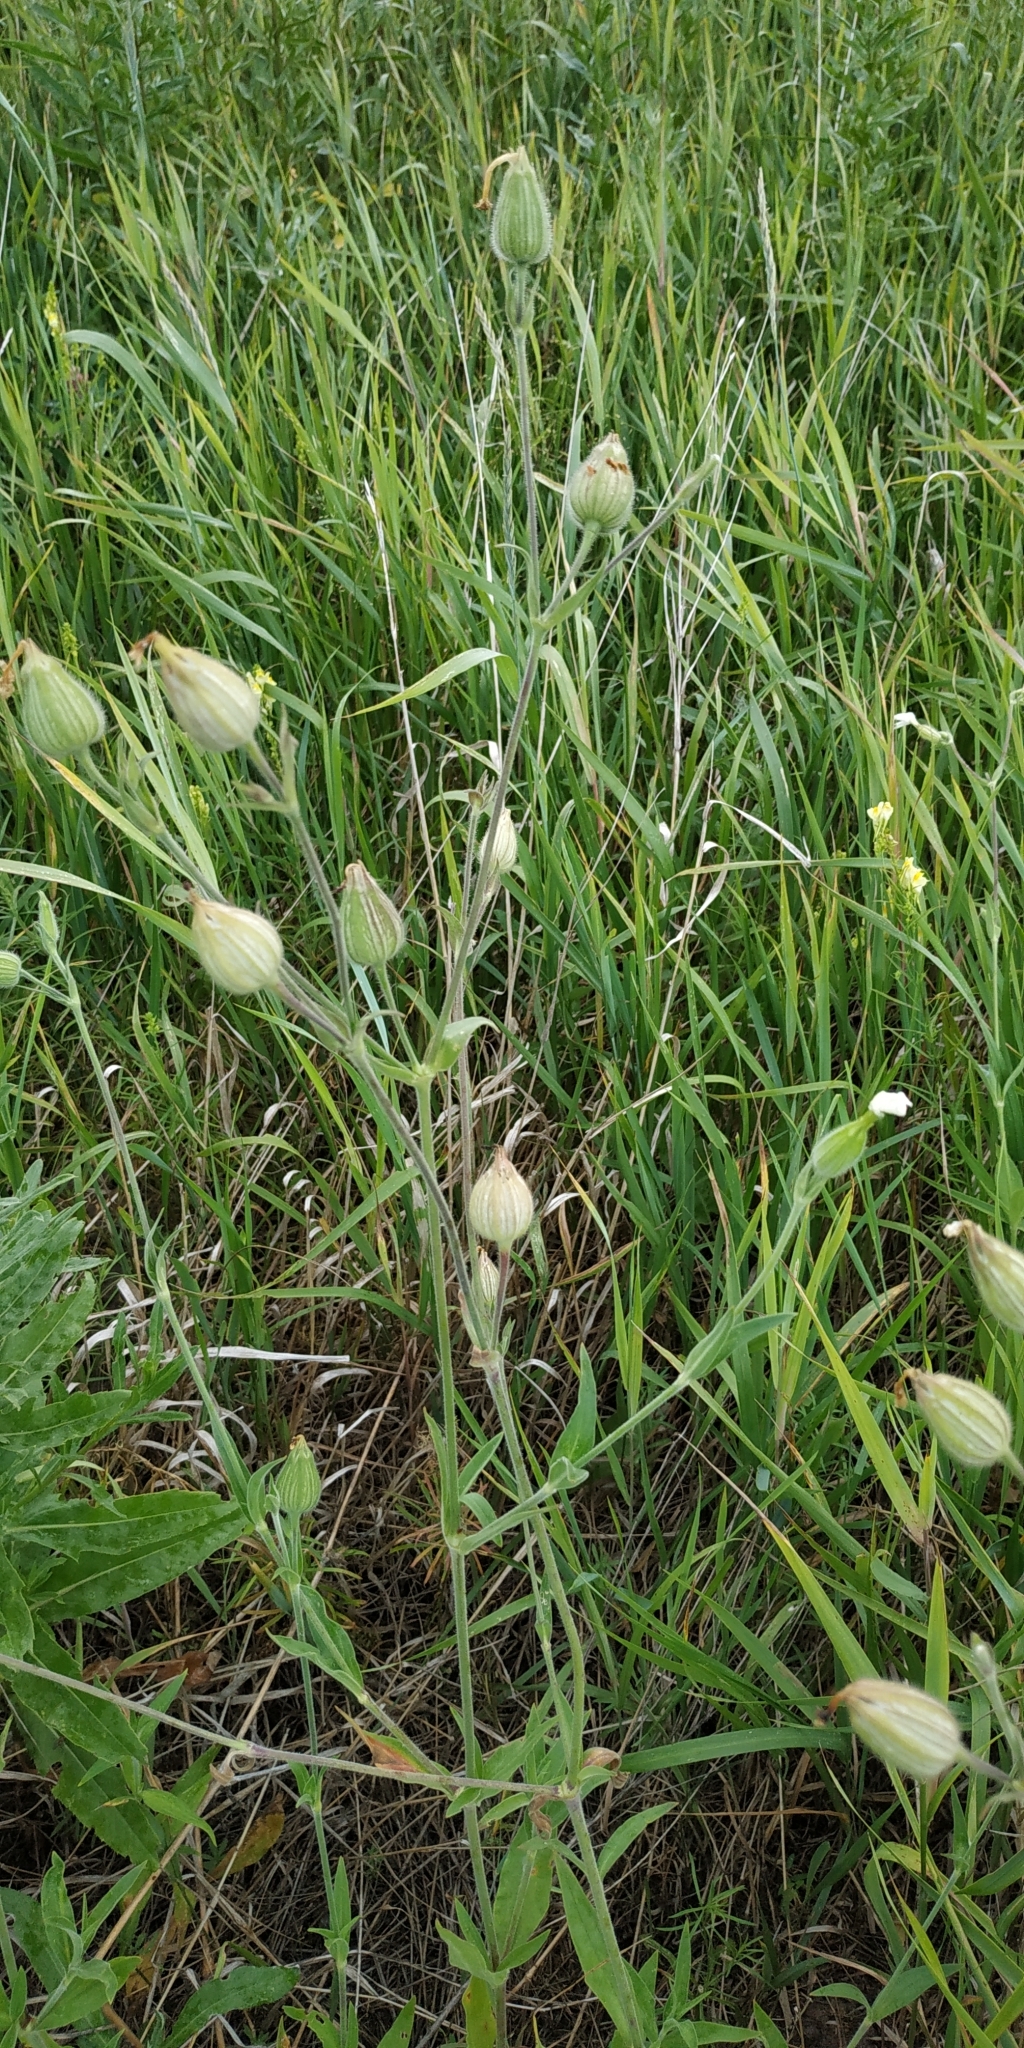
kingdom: Plantae
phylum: Tracheophyta
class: Magnoliopsida
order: Caryophyllales
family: Caryophyllaceae
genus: Silene
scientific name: Silene latifolia
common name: White campion
